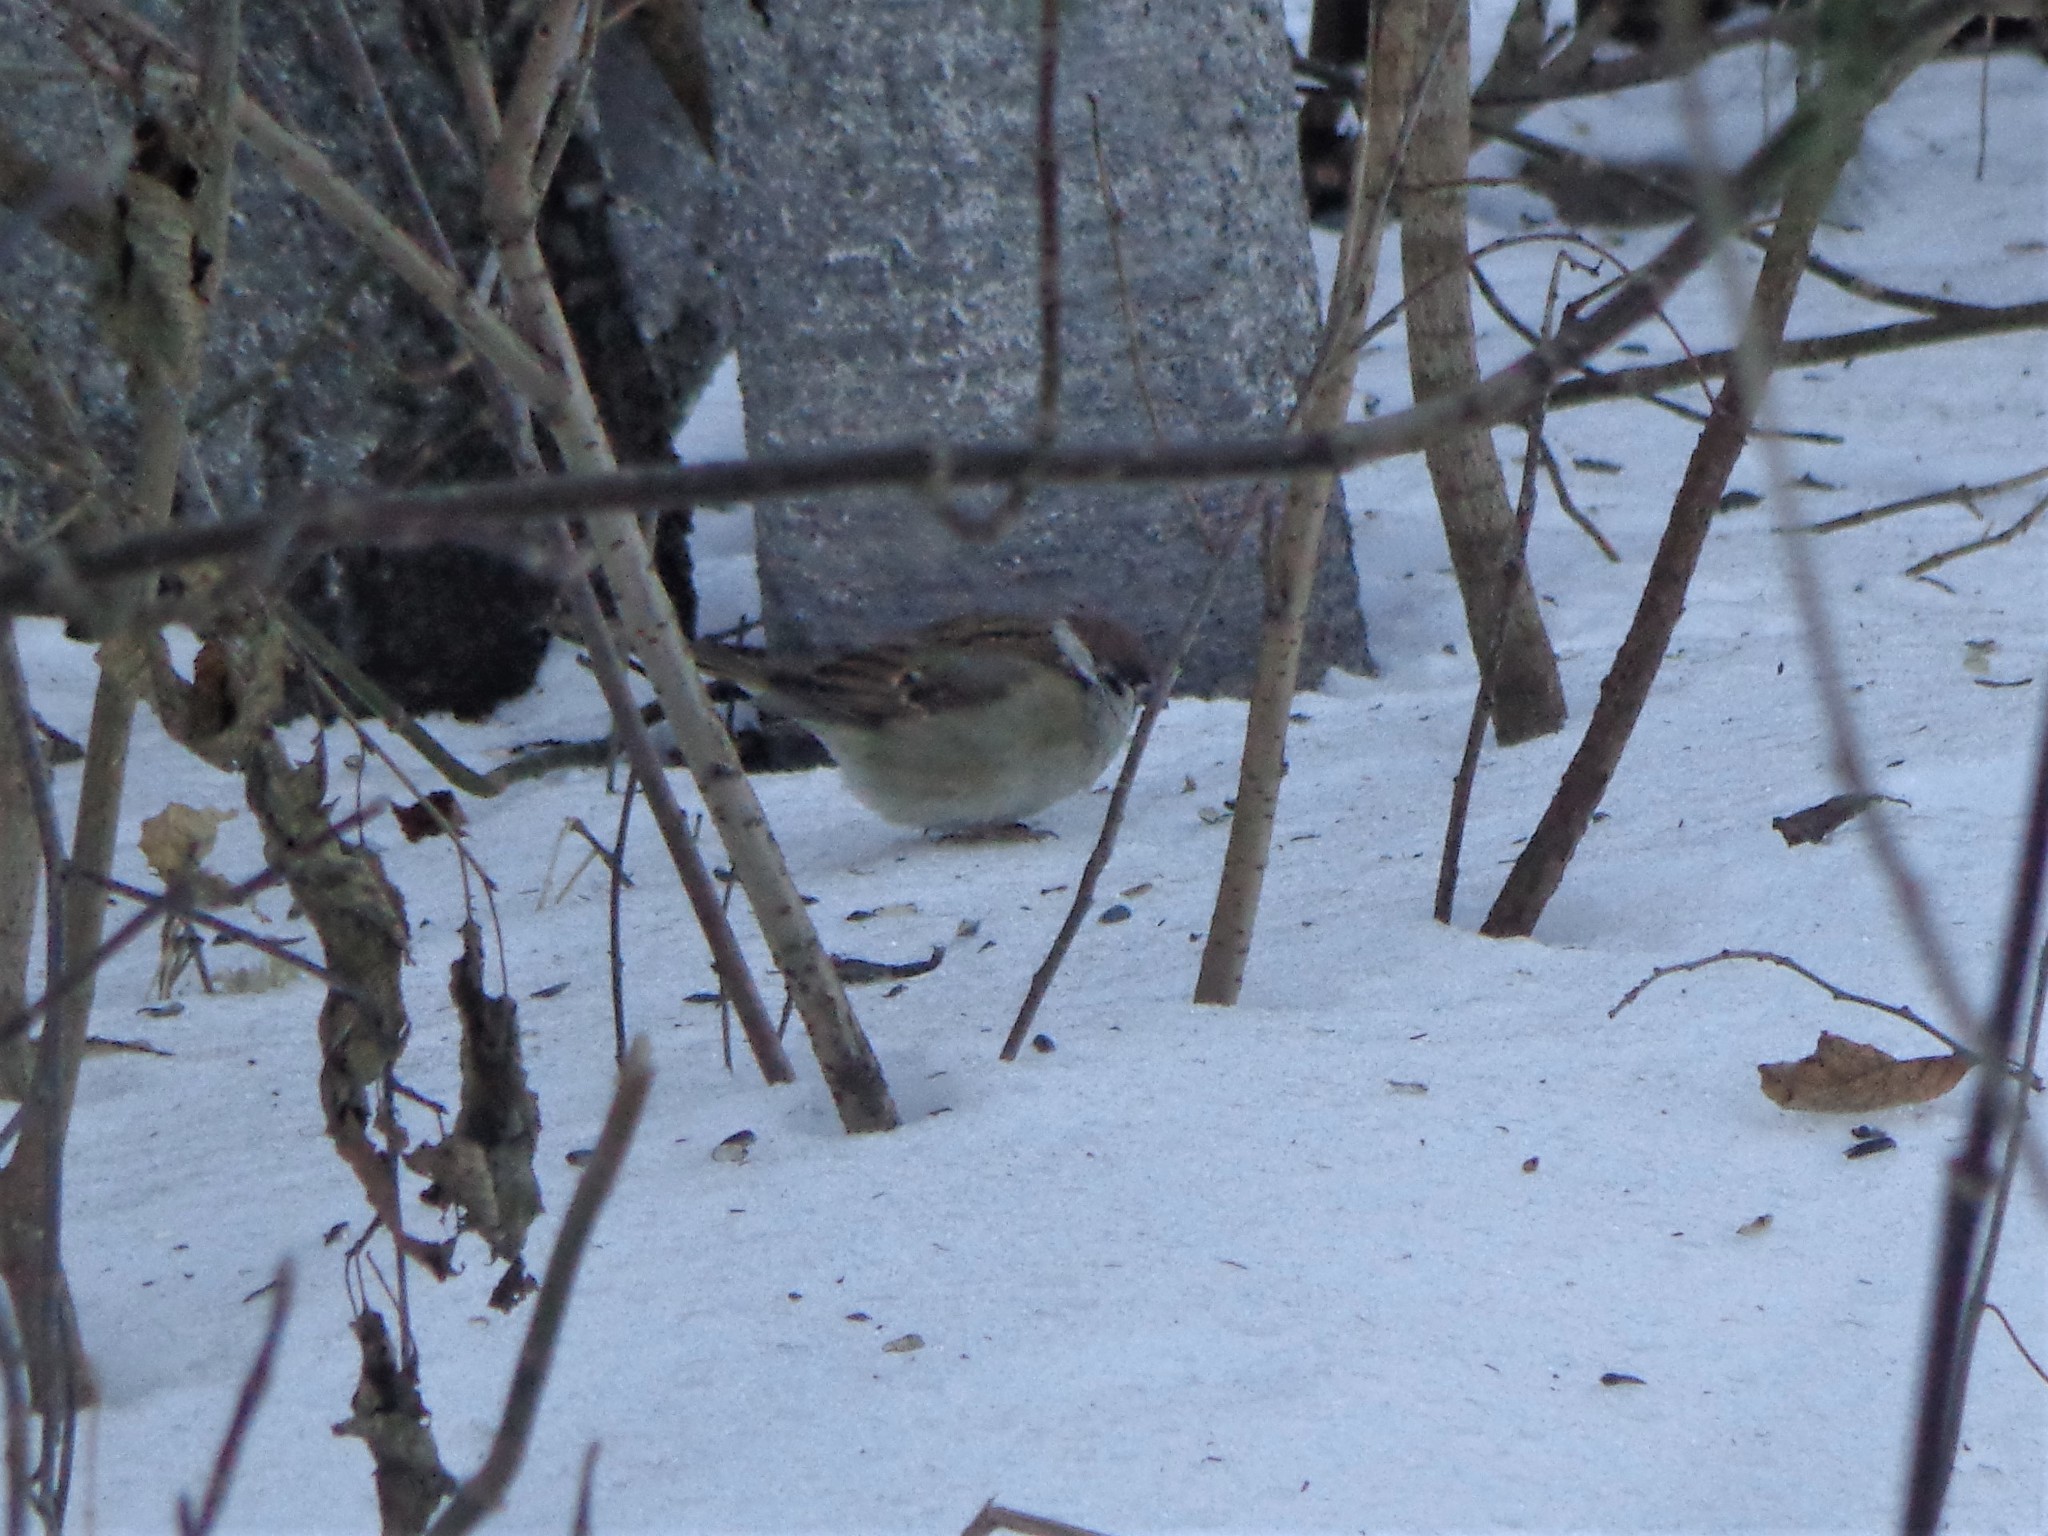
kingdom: Animalia
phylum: Chordata
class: Aves
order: Passeriformes
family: Passeridae
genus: Passer
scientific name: Passer montanus
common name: Eurasian tree sparrow
